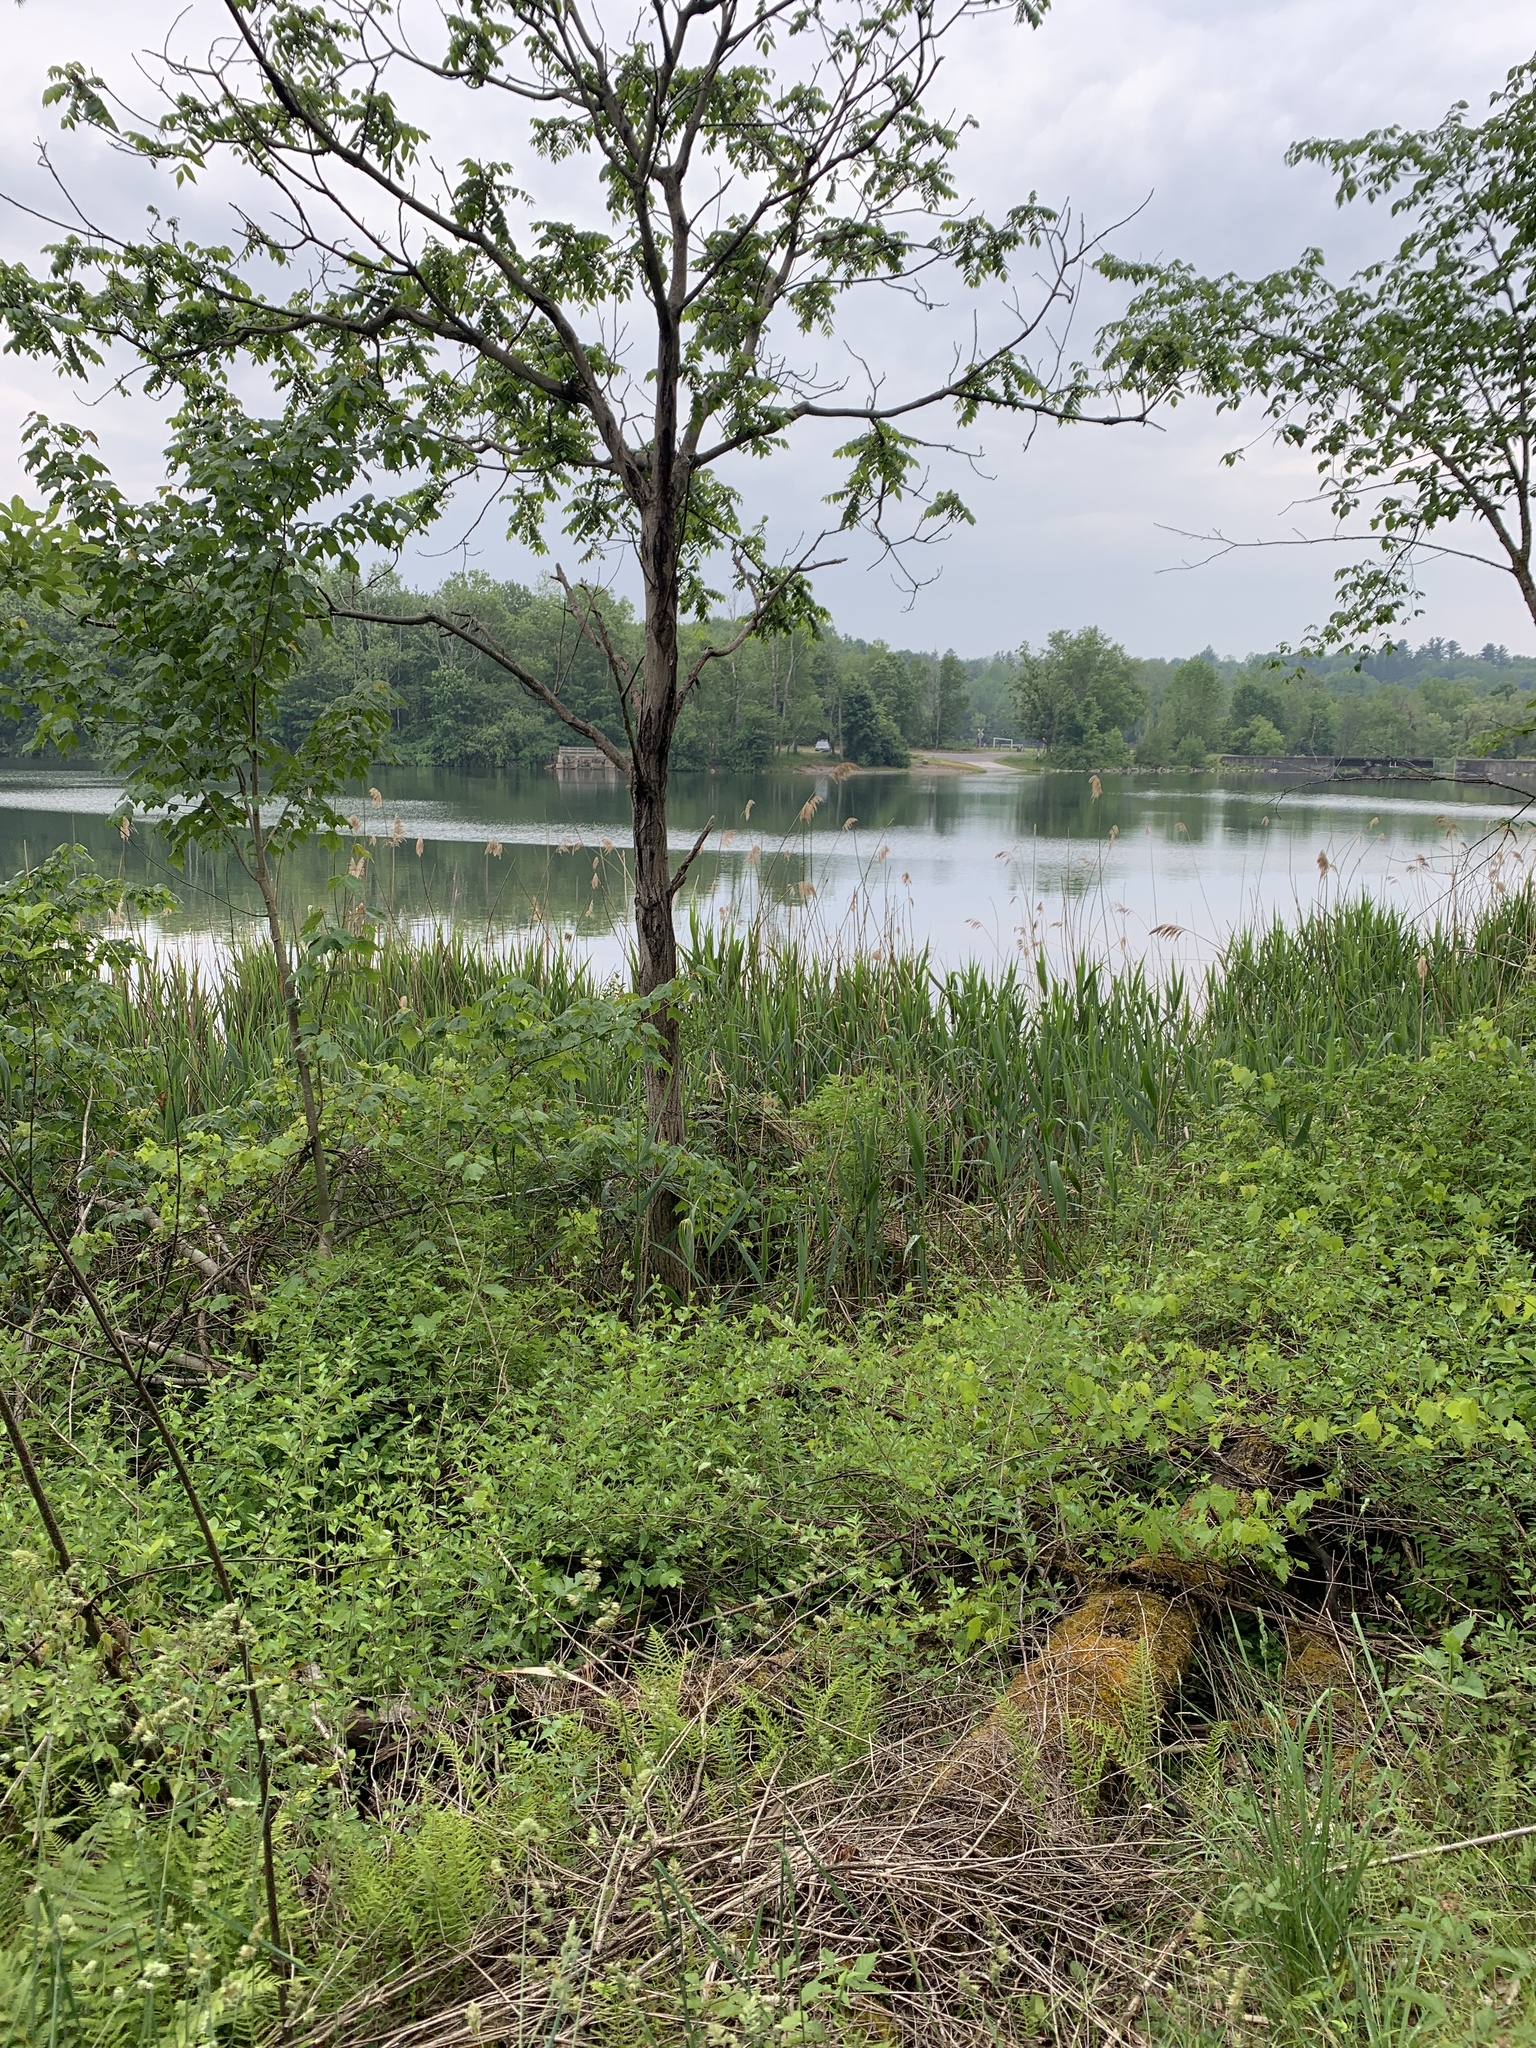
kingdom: Plantae
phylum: Tracheophyta
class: Liliopsida
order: Poales
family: Poaceae
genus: Phragmites
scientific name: Phragmites australis
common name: Common reed
